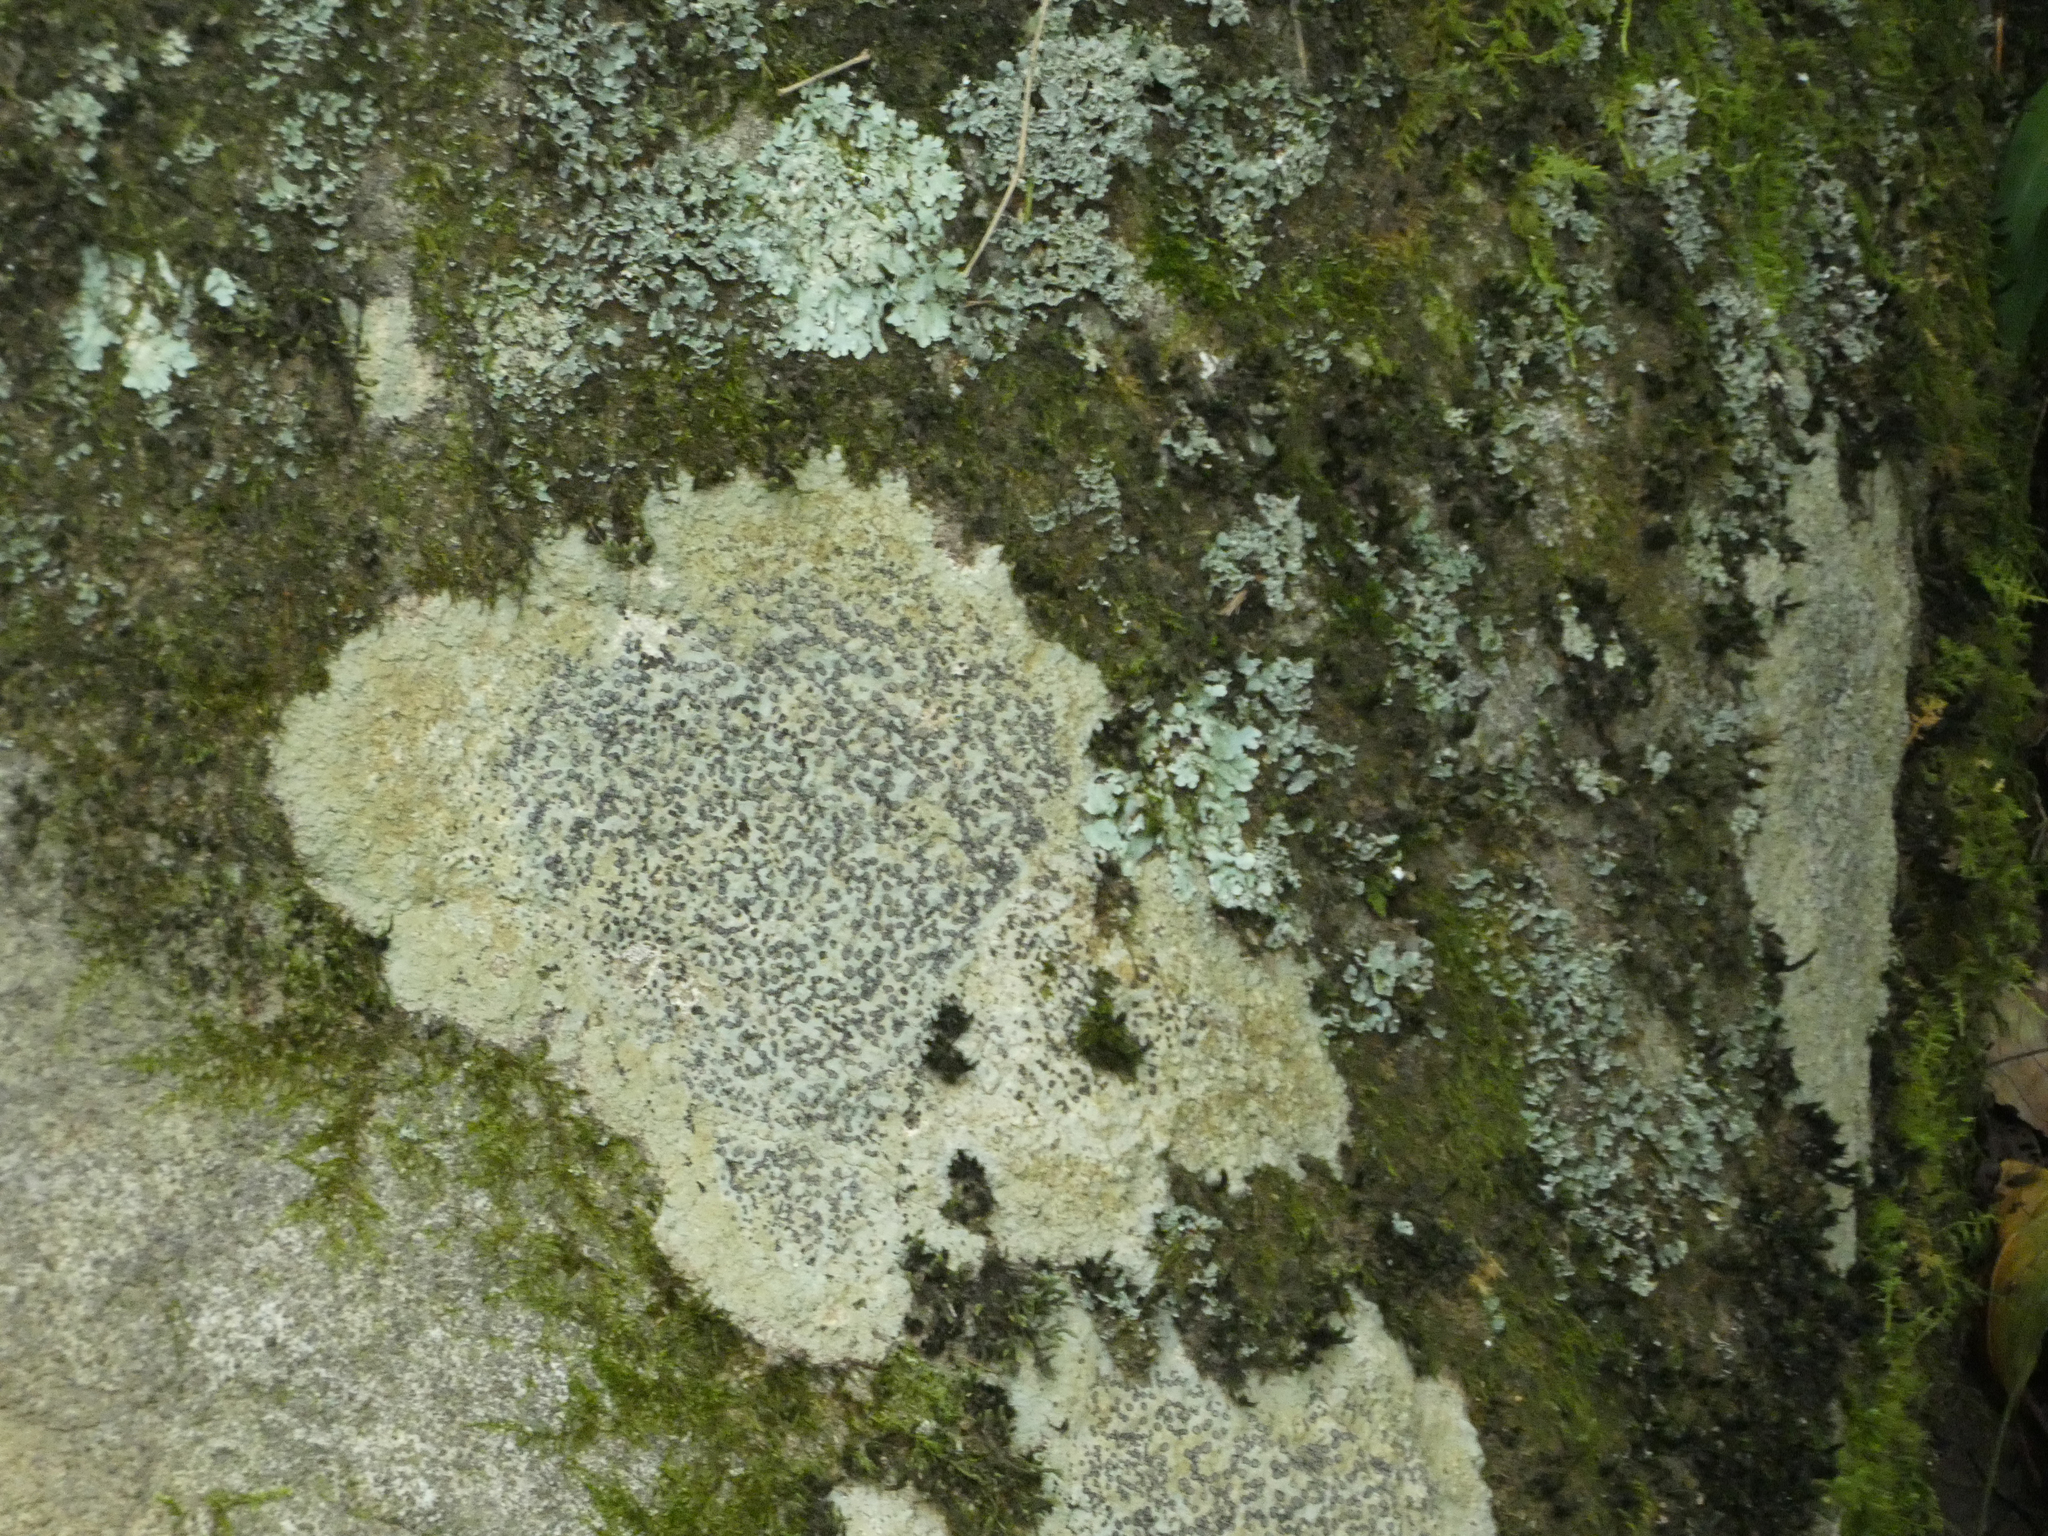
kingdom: Fungi
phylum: Ascomycota
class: Lecanoromycetes
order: Lecideales
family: Lecideaceae
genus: Porpidia
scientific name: Porpidia albocaerulescens
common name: Smokey-eyed boulder lichen
